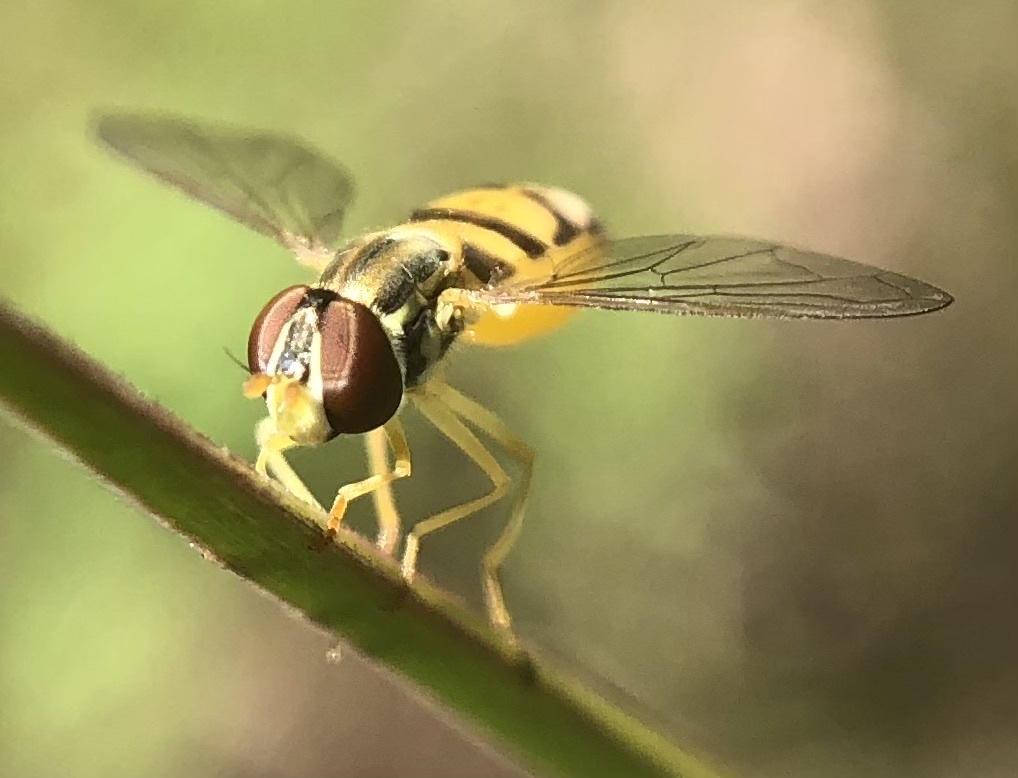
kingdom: Animalia
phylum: Arthropoda
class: Insecta
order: Diptera
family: Syrphidae
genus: Toxomerus
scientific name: Toxomerus marginatus
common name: Syrphid fly
